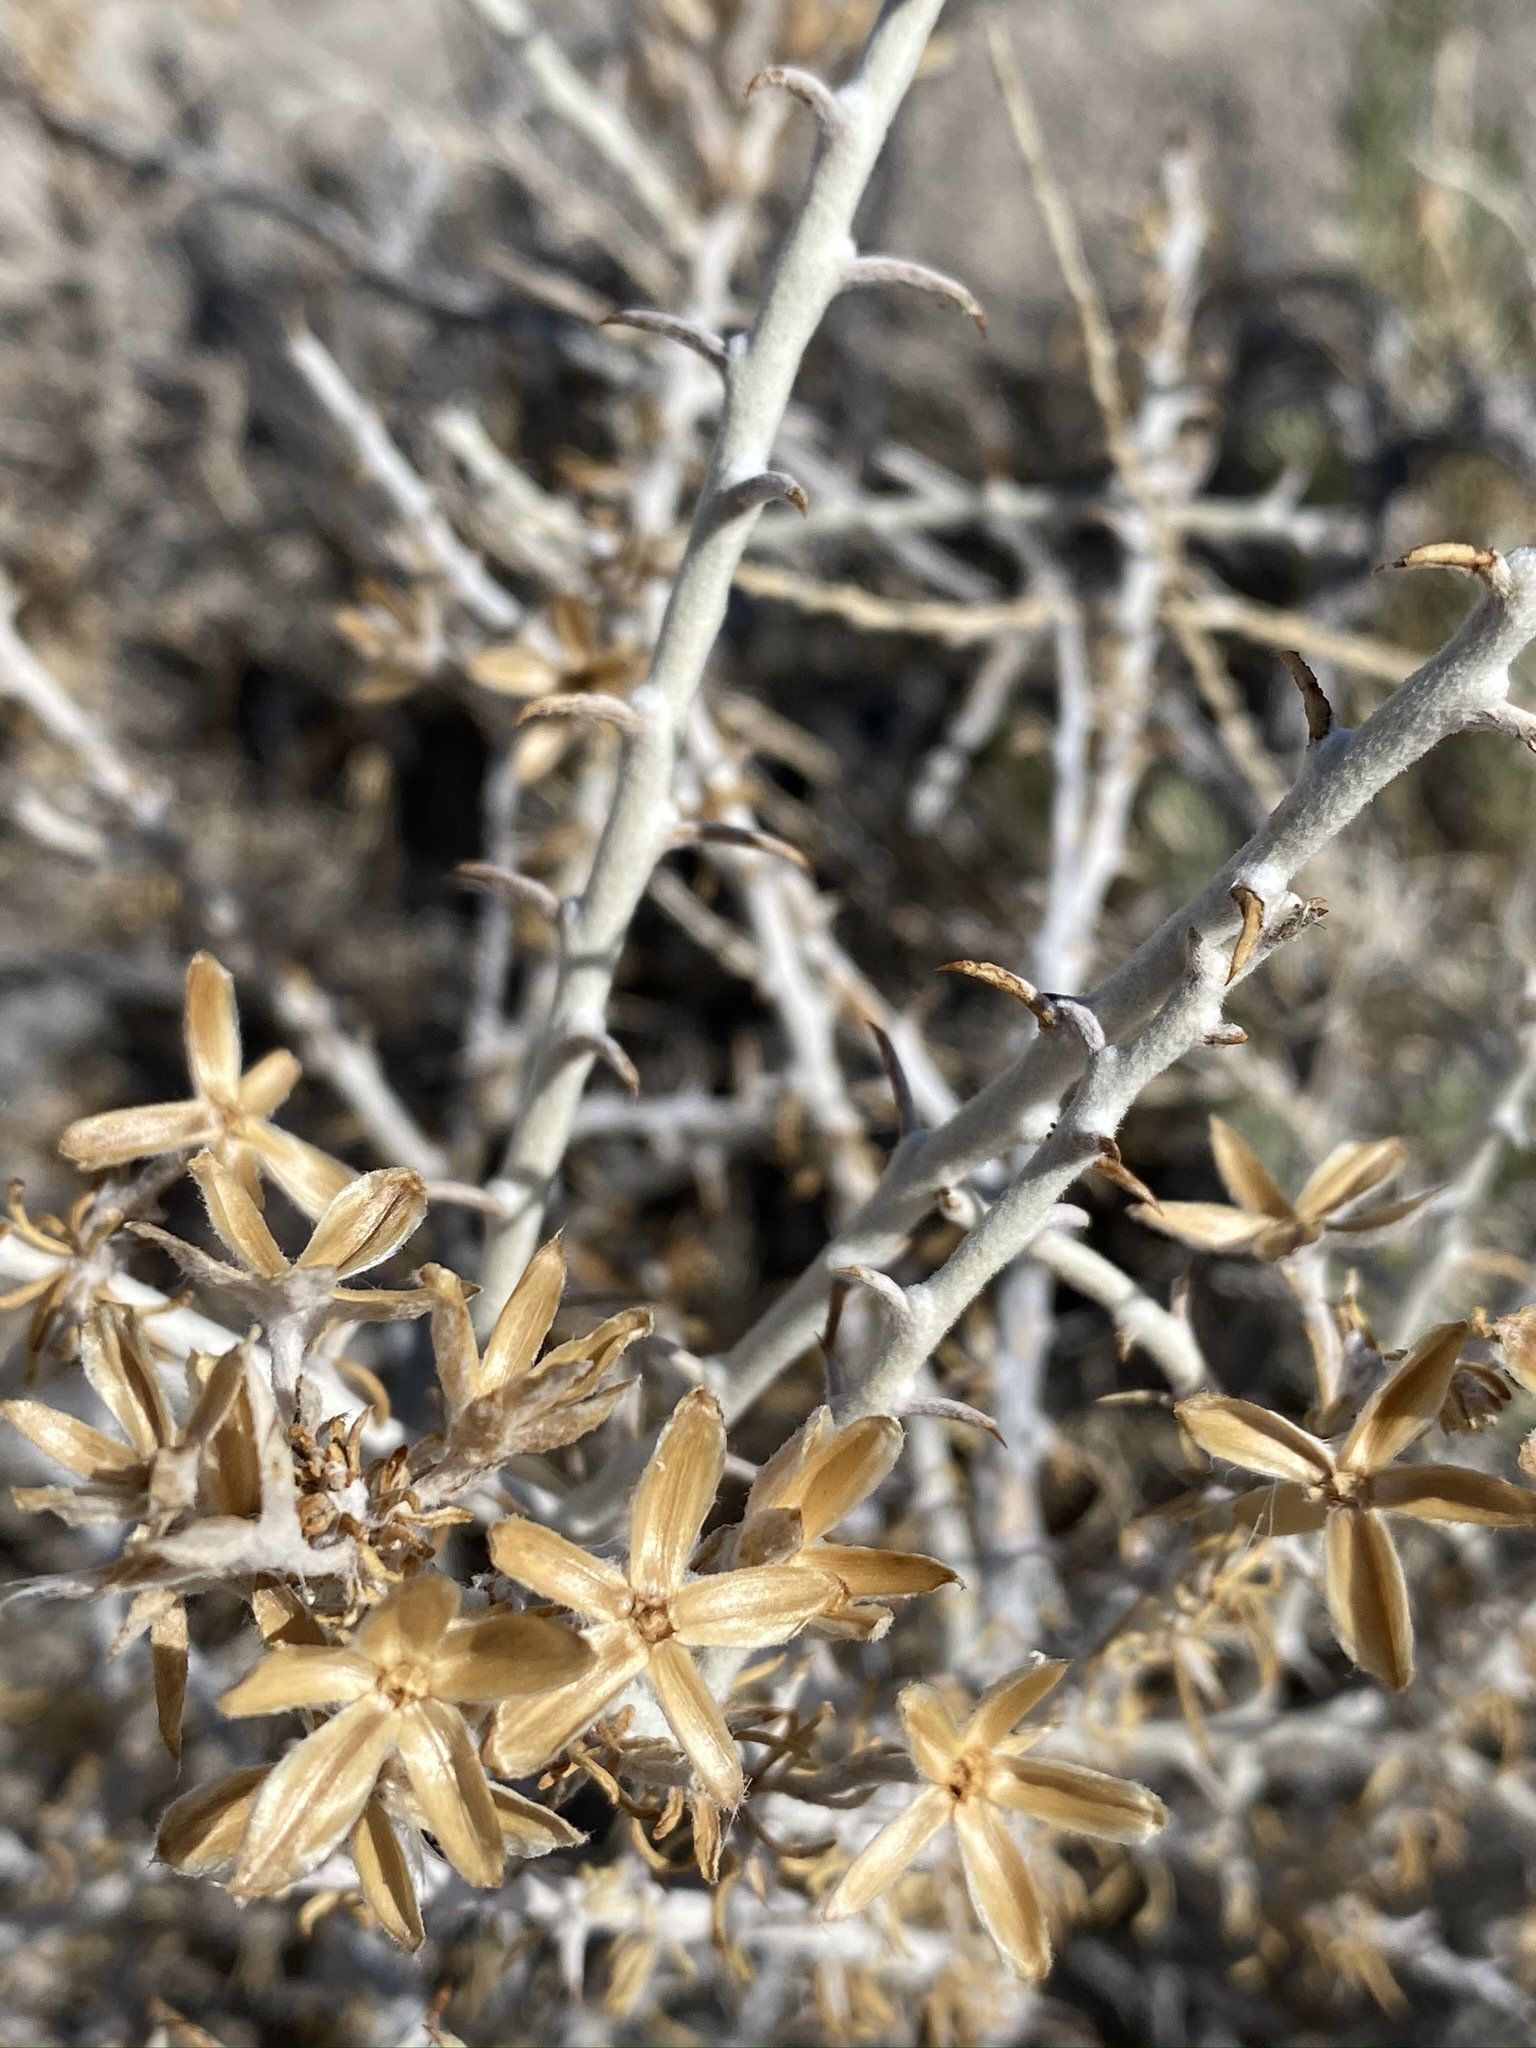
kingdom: Plantae
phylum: Tracheophyta
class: Magnoliopsida
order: Asterales
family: Asteraceae
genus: Tetradymia
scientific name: Tetradymia spinosa
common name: Thorny horsebrush
